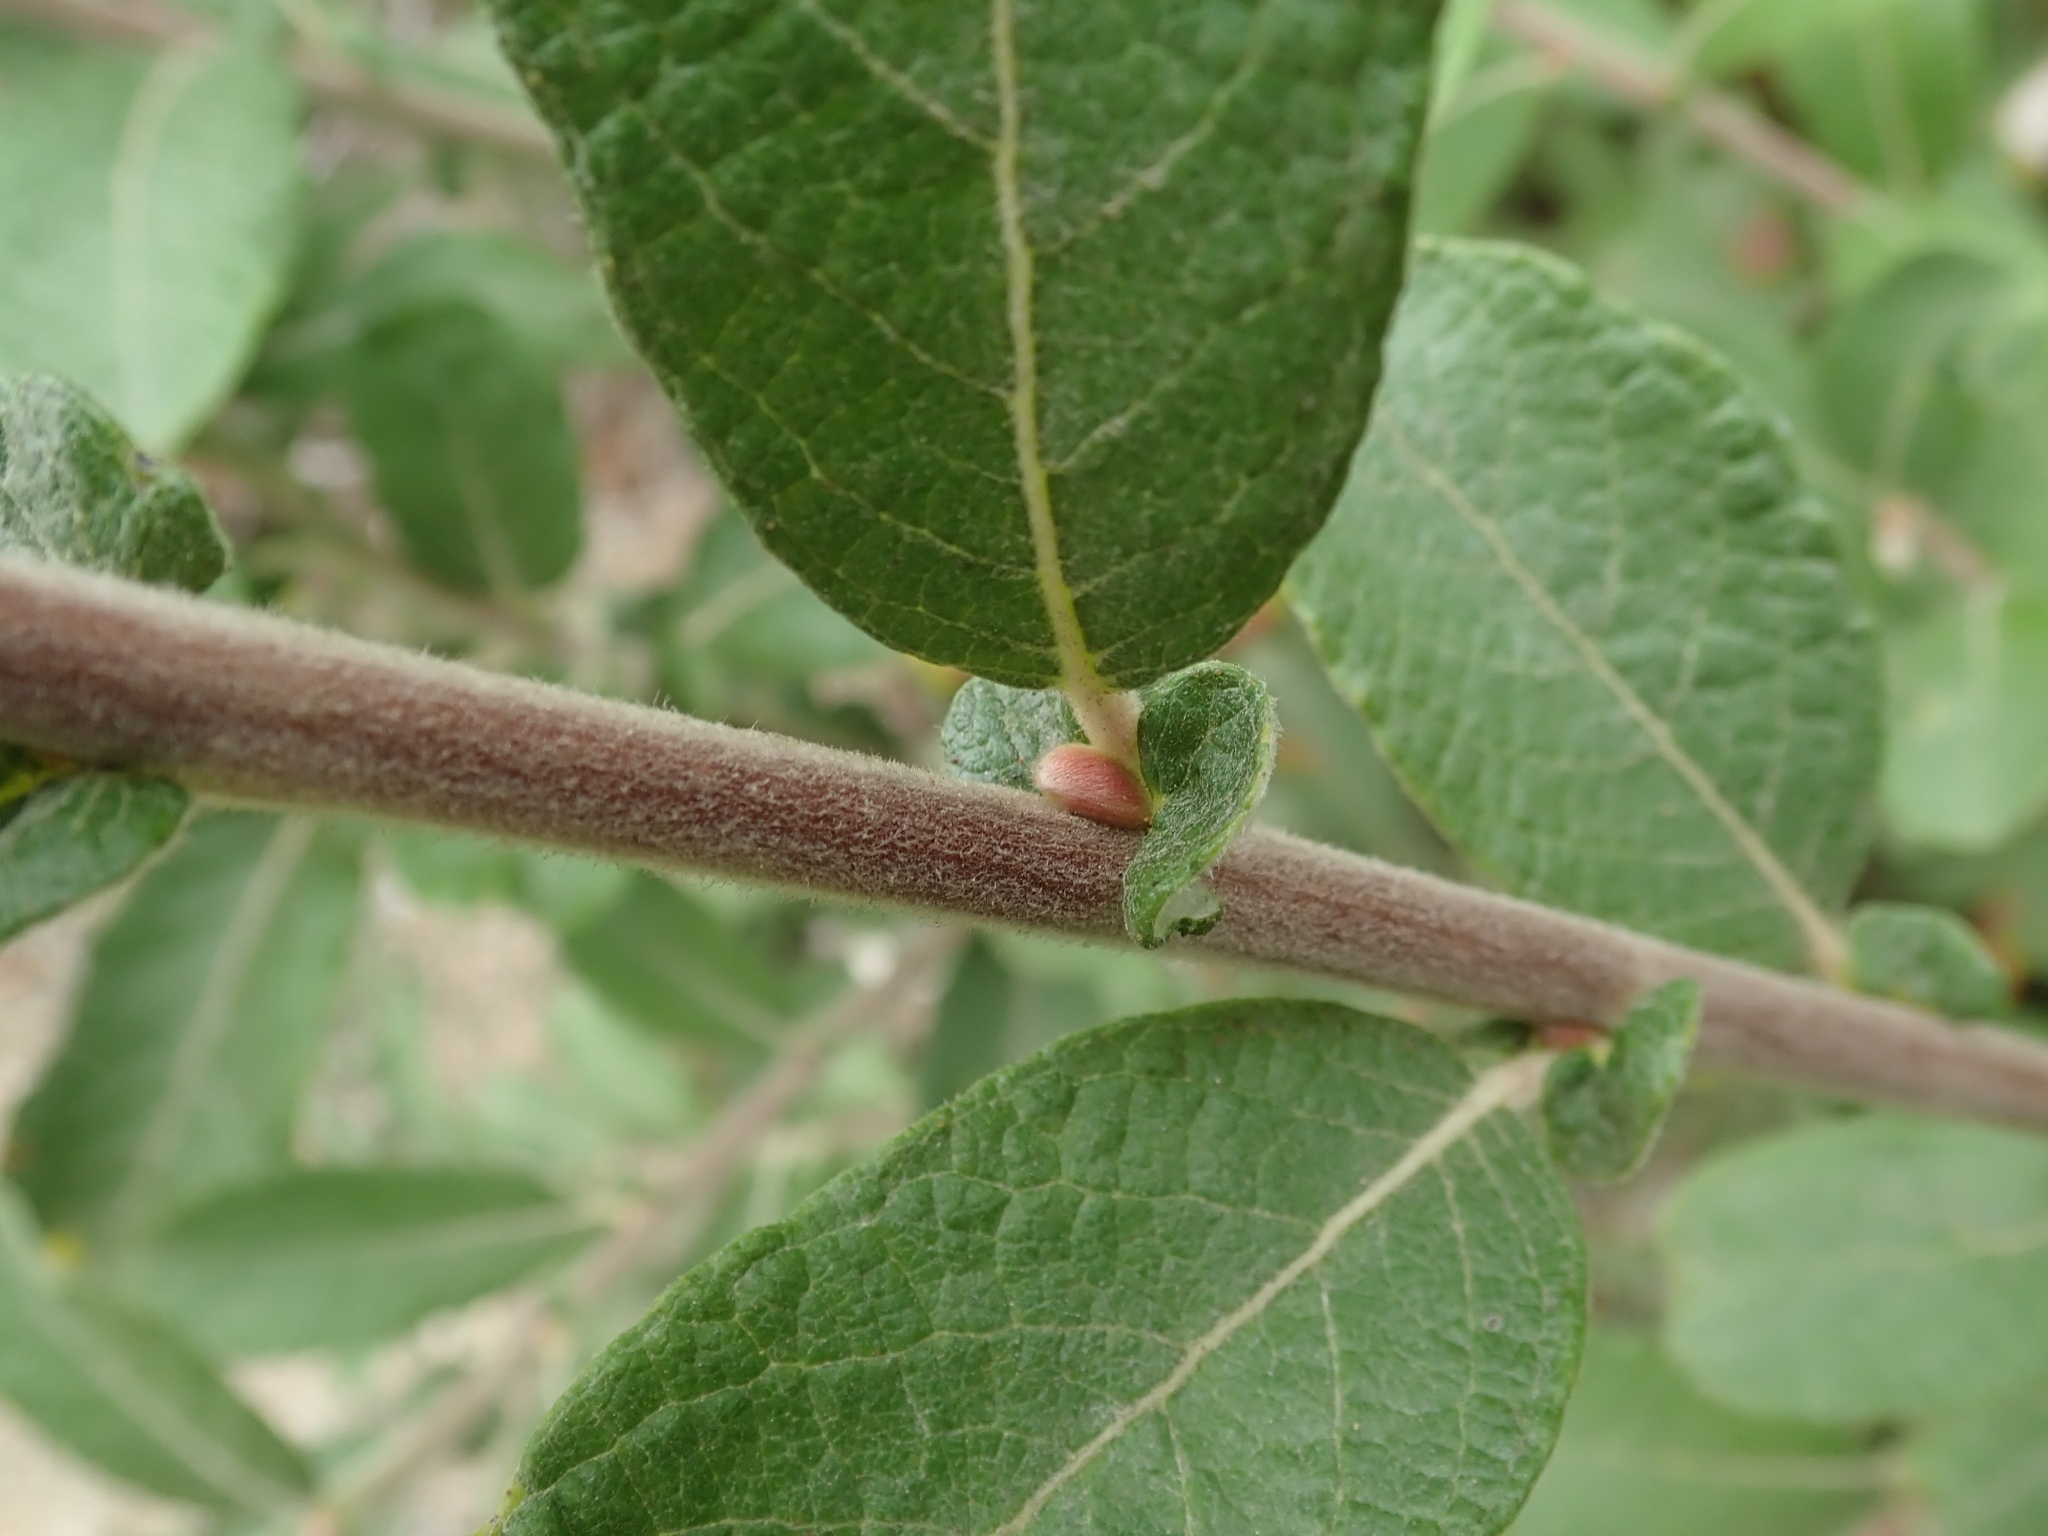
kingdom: Plantae
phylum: Tracheophyta
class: Magnoliopsida
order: Malpighiales
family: Salicaceae
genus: Salix
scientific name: Salix sitchensis
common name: Sitka willow
